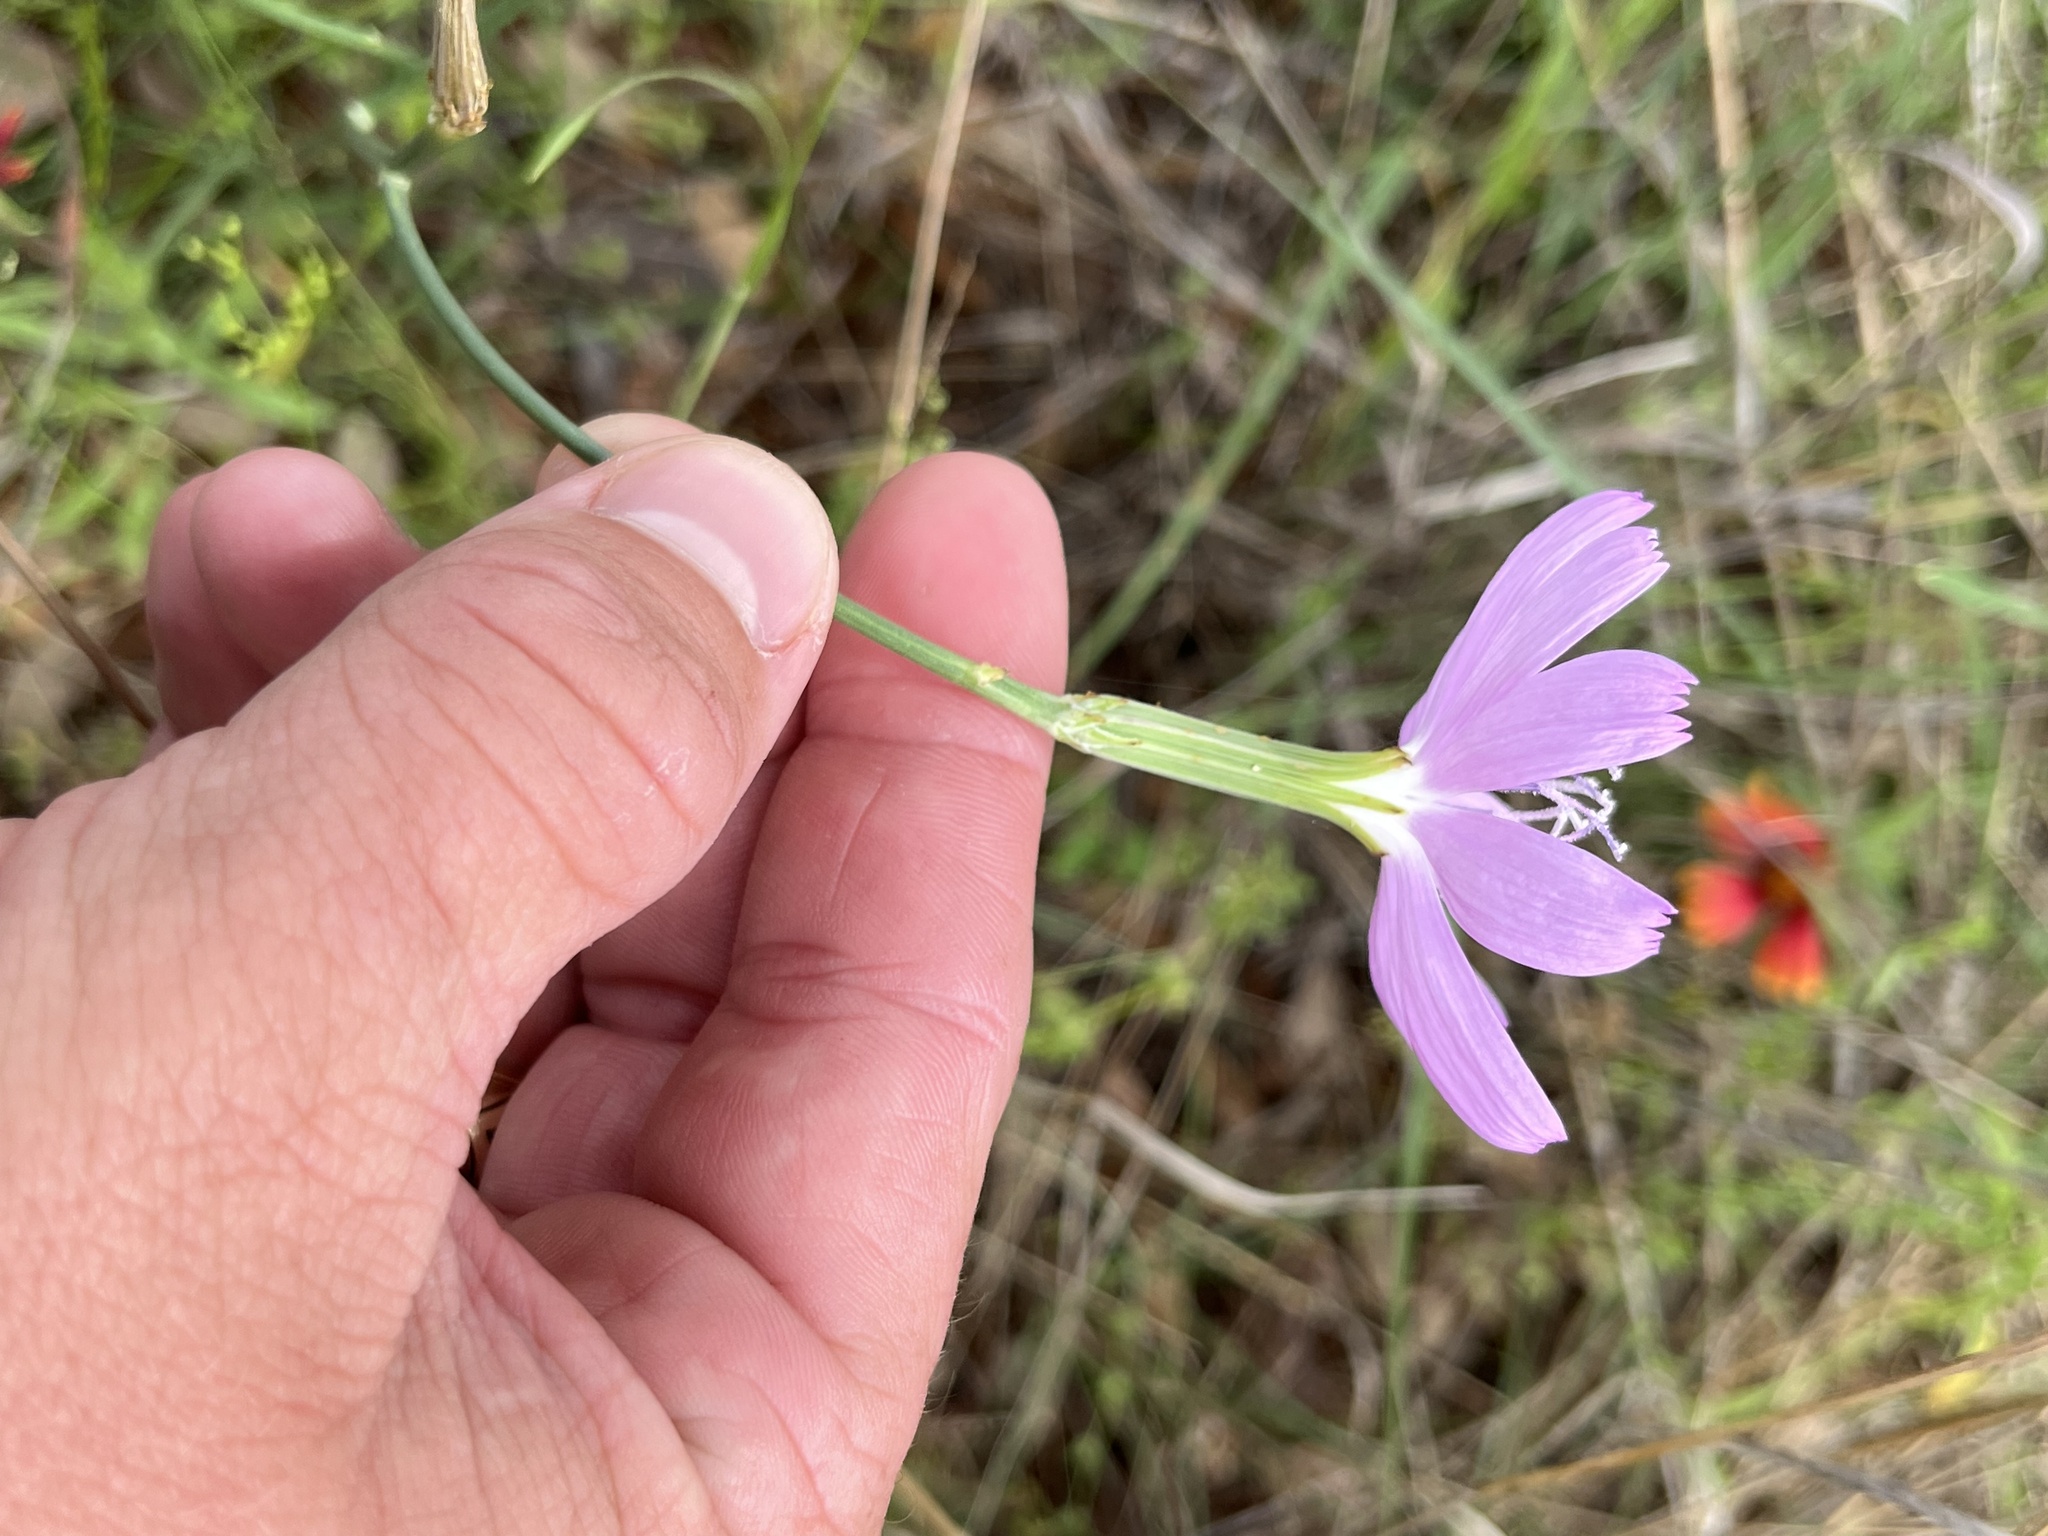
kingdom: Plantae
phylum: Tracheophyta
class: Magnoliopsida
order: Asterales
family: Asteraceae
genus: Lygodesmia
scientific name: Lygodesmia texana
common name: Texas skeleton-plant
